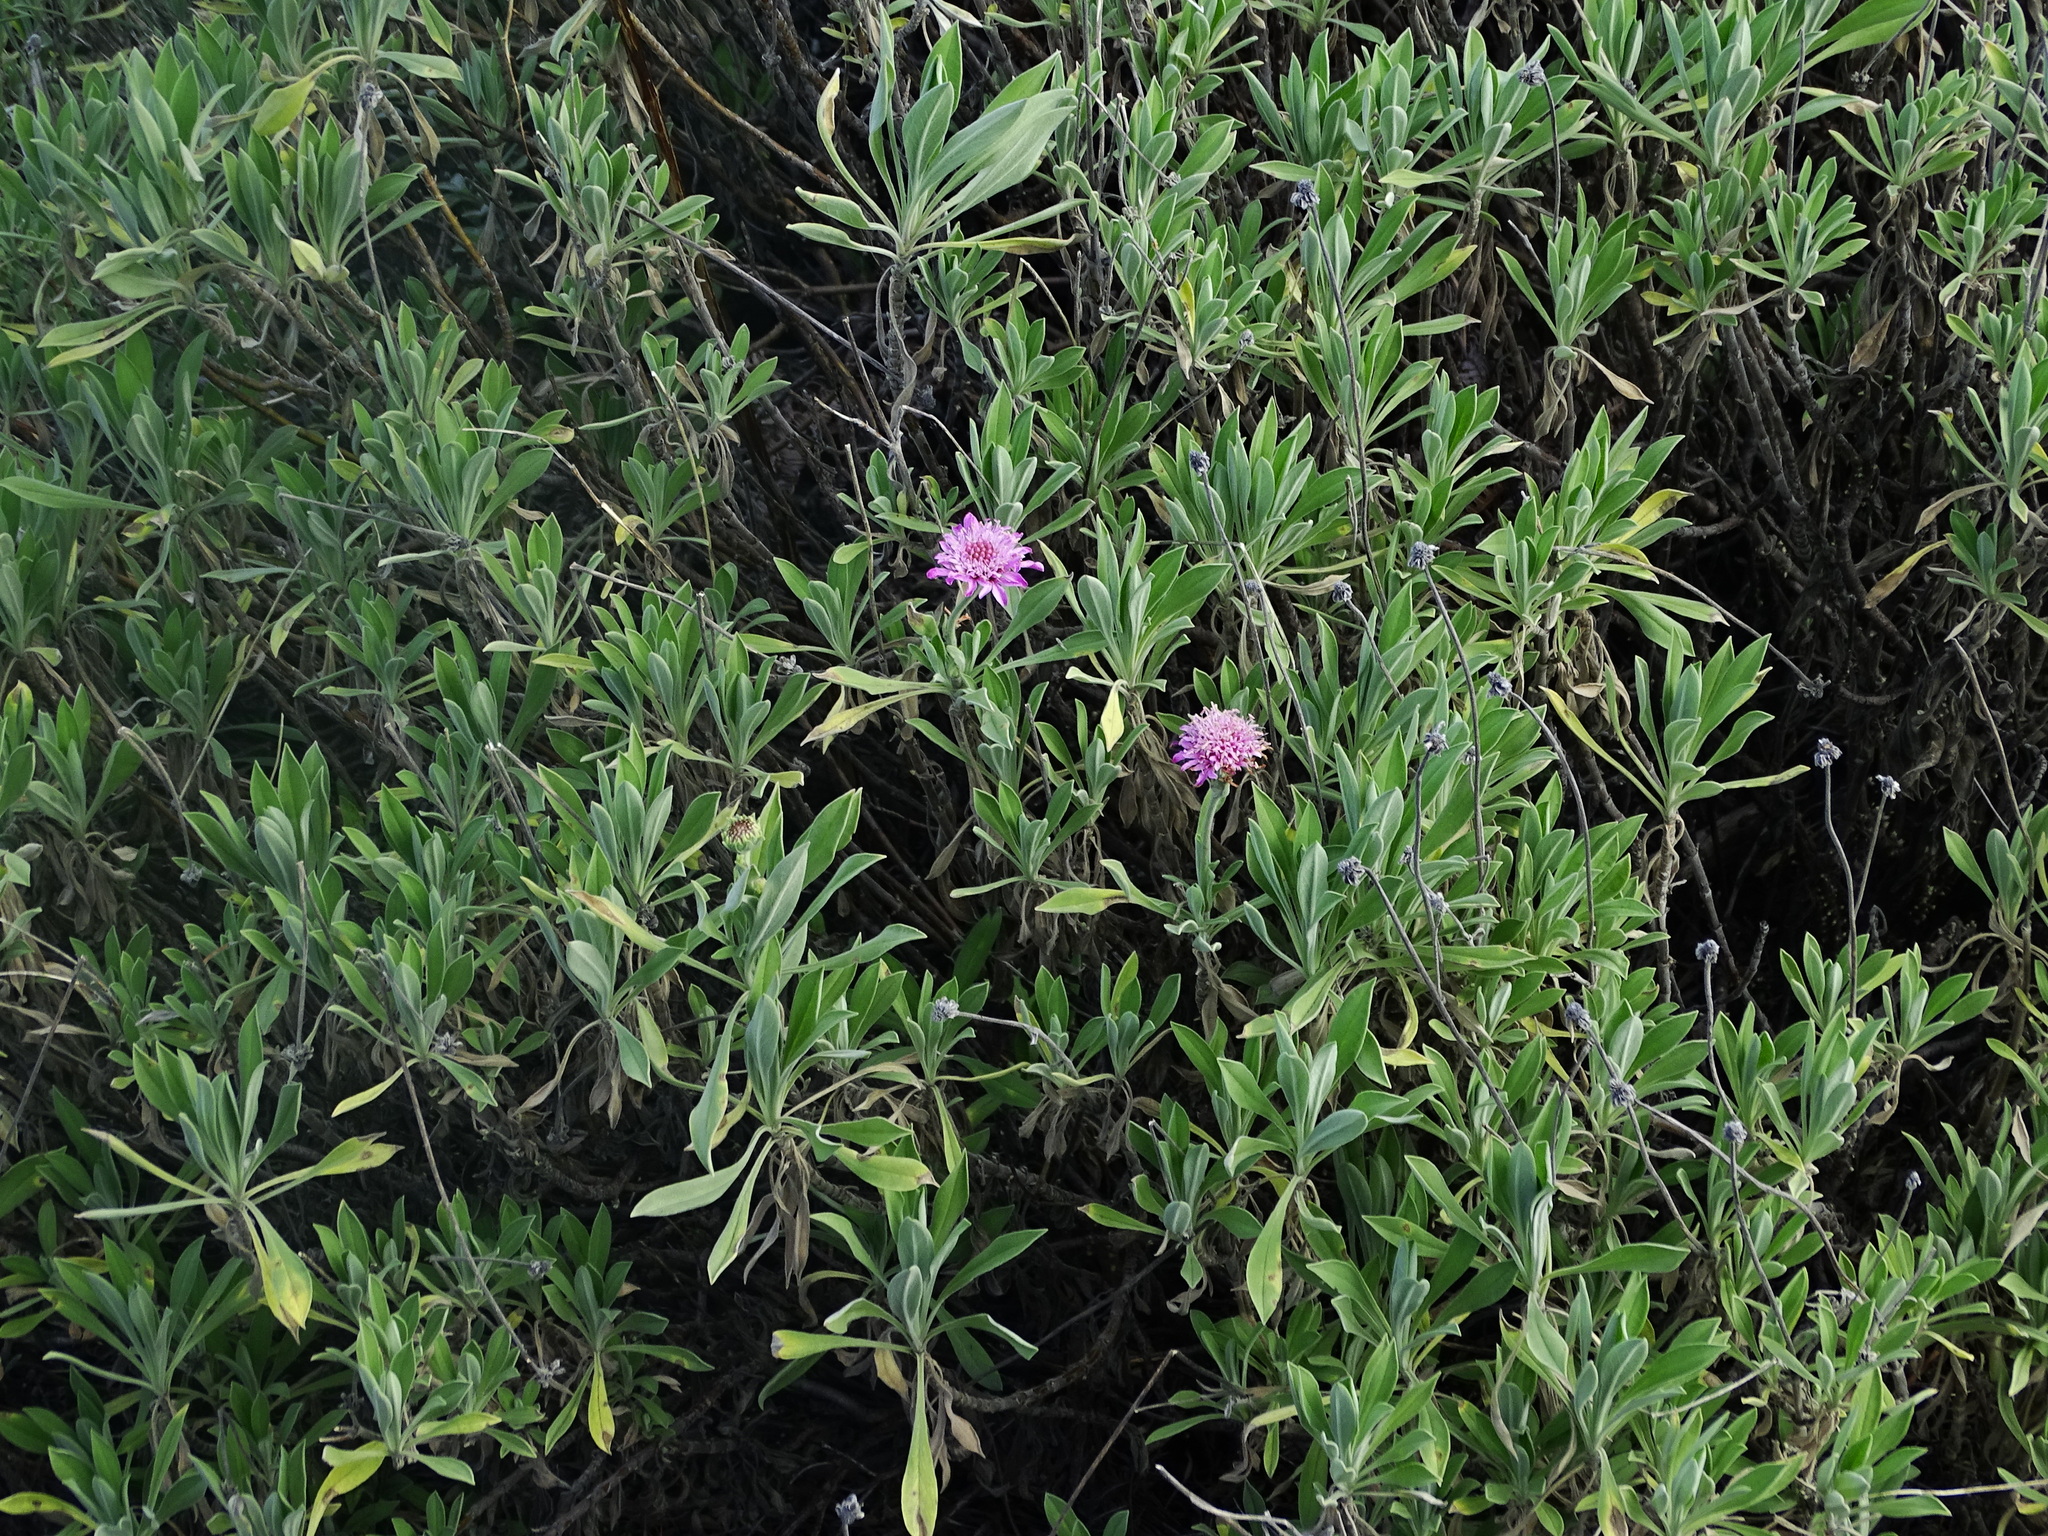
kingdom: Plantae
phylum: Tracheophyta
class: Magnoliopsida
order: Dipsacales
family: Caprifoliaceae
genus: Pterocephalus
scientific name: Pterocephalus porphyranthus
